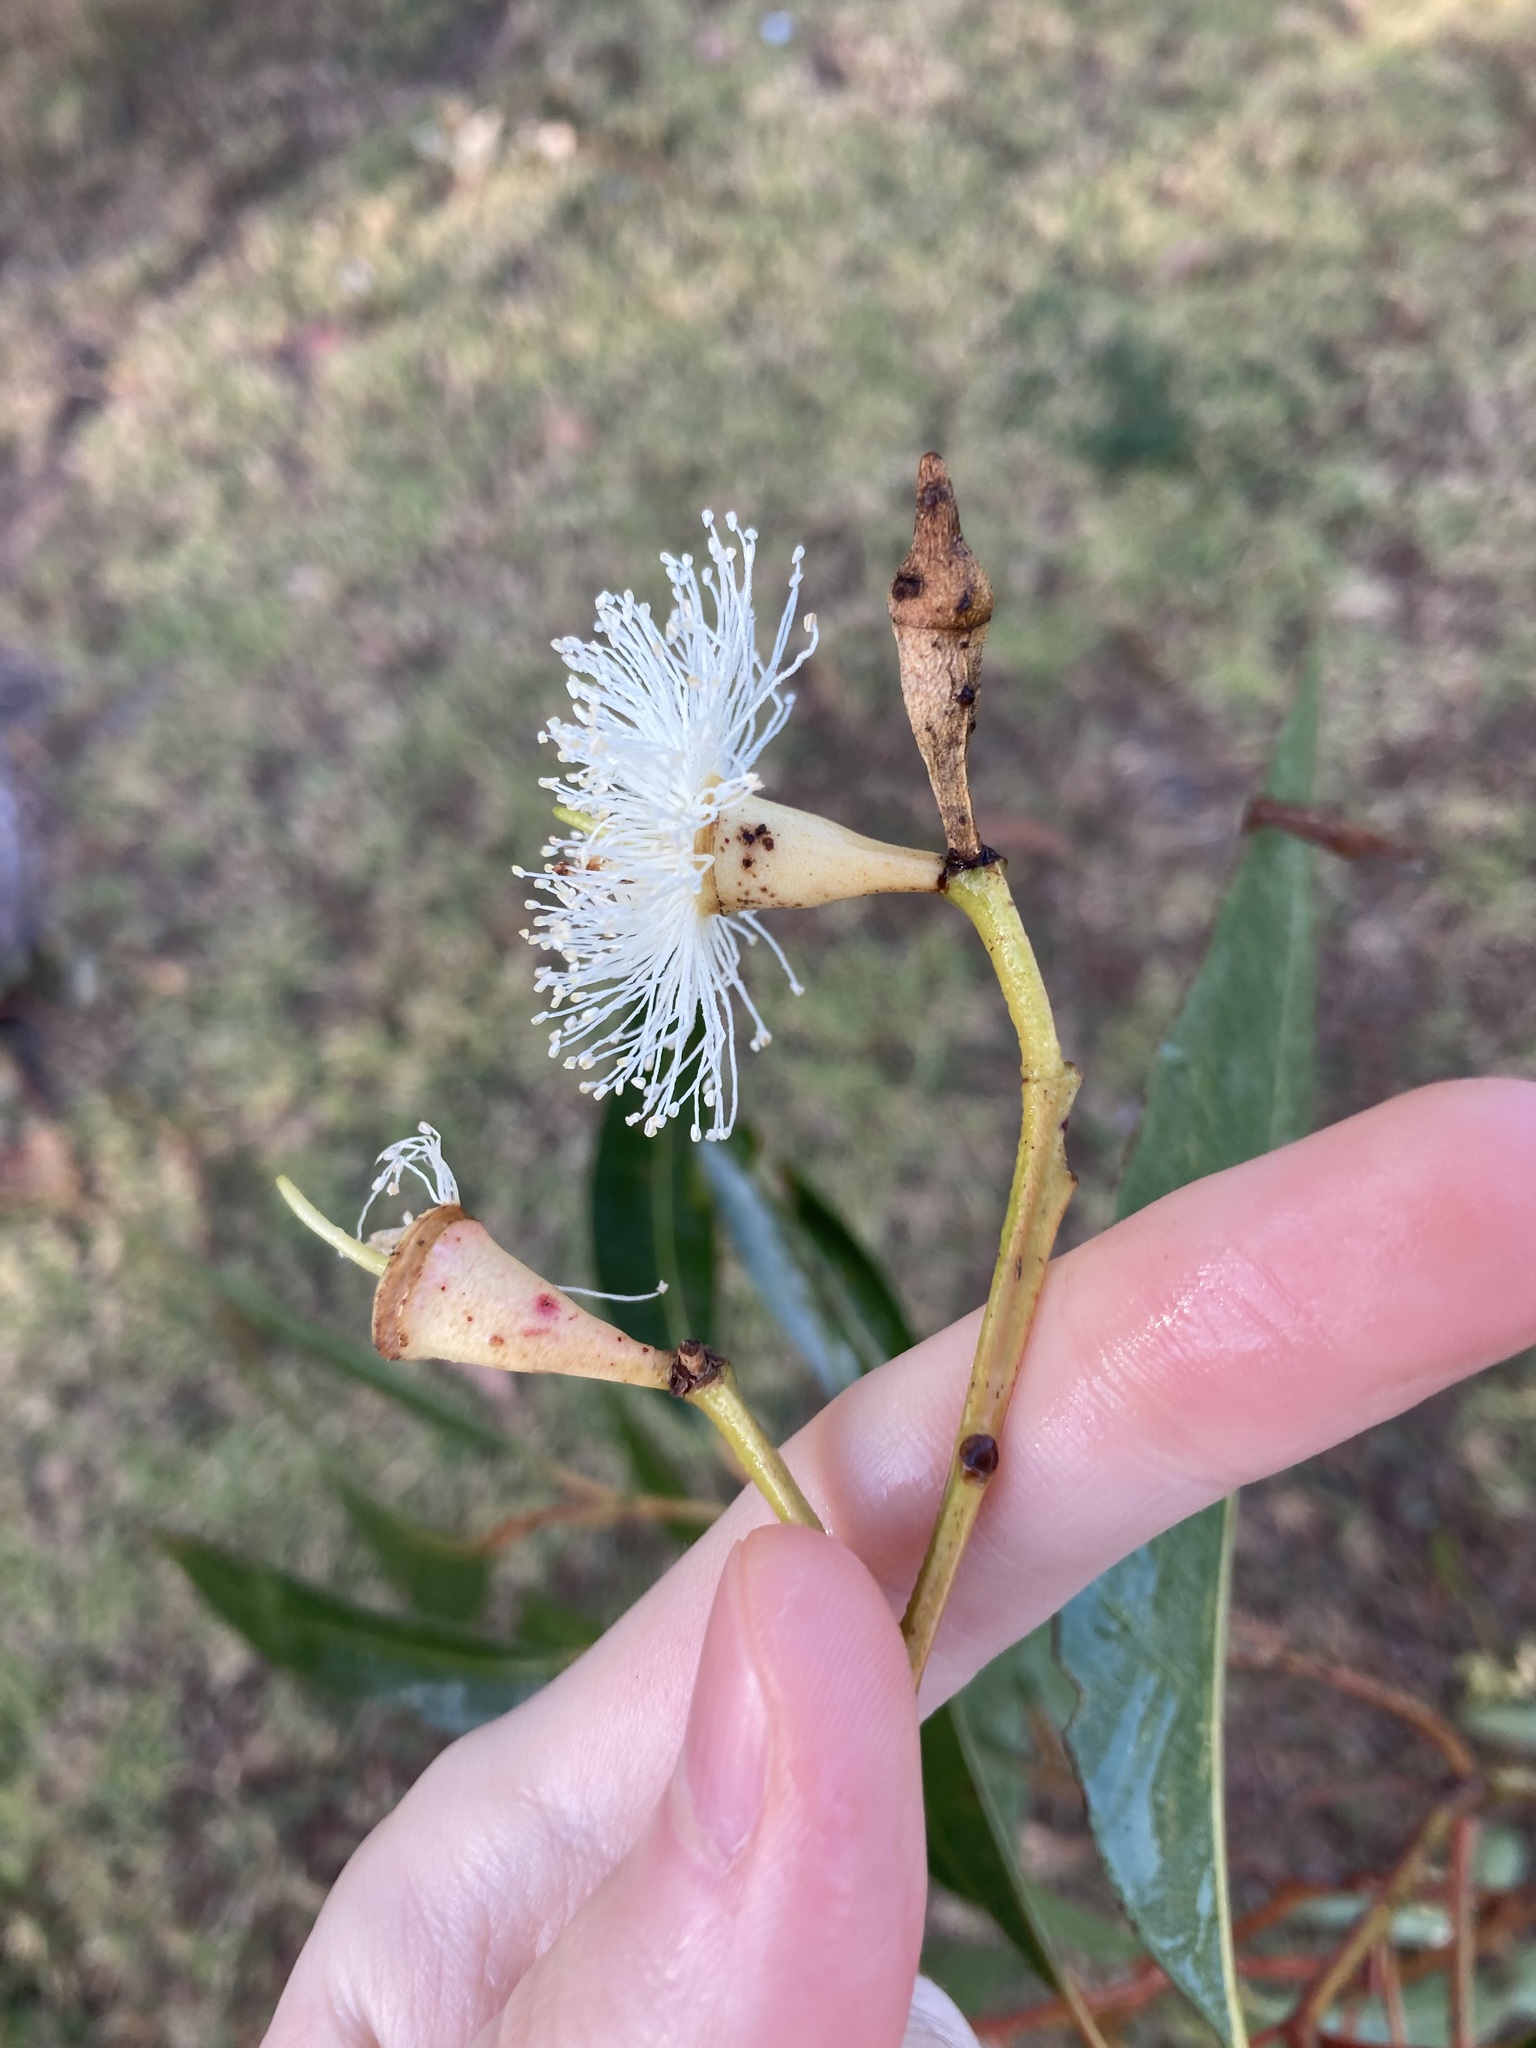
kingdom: Plantae
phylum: Tracheophyta
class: Magnoliopsida
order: Myrtales
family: Myrtaceae
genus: Eucalyptus
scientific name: Eucalyptus robusta
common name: Swampmahogany
